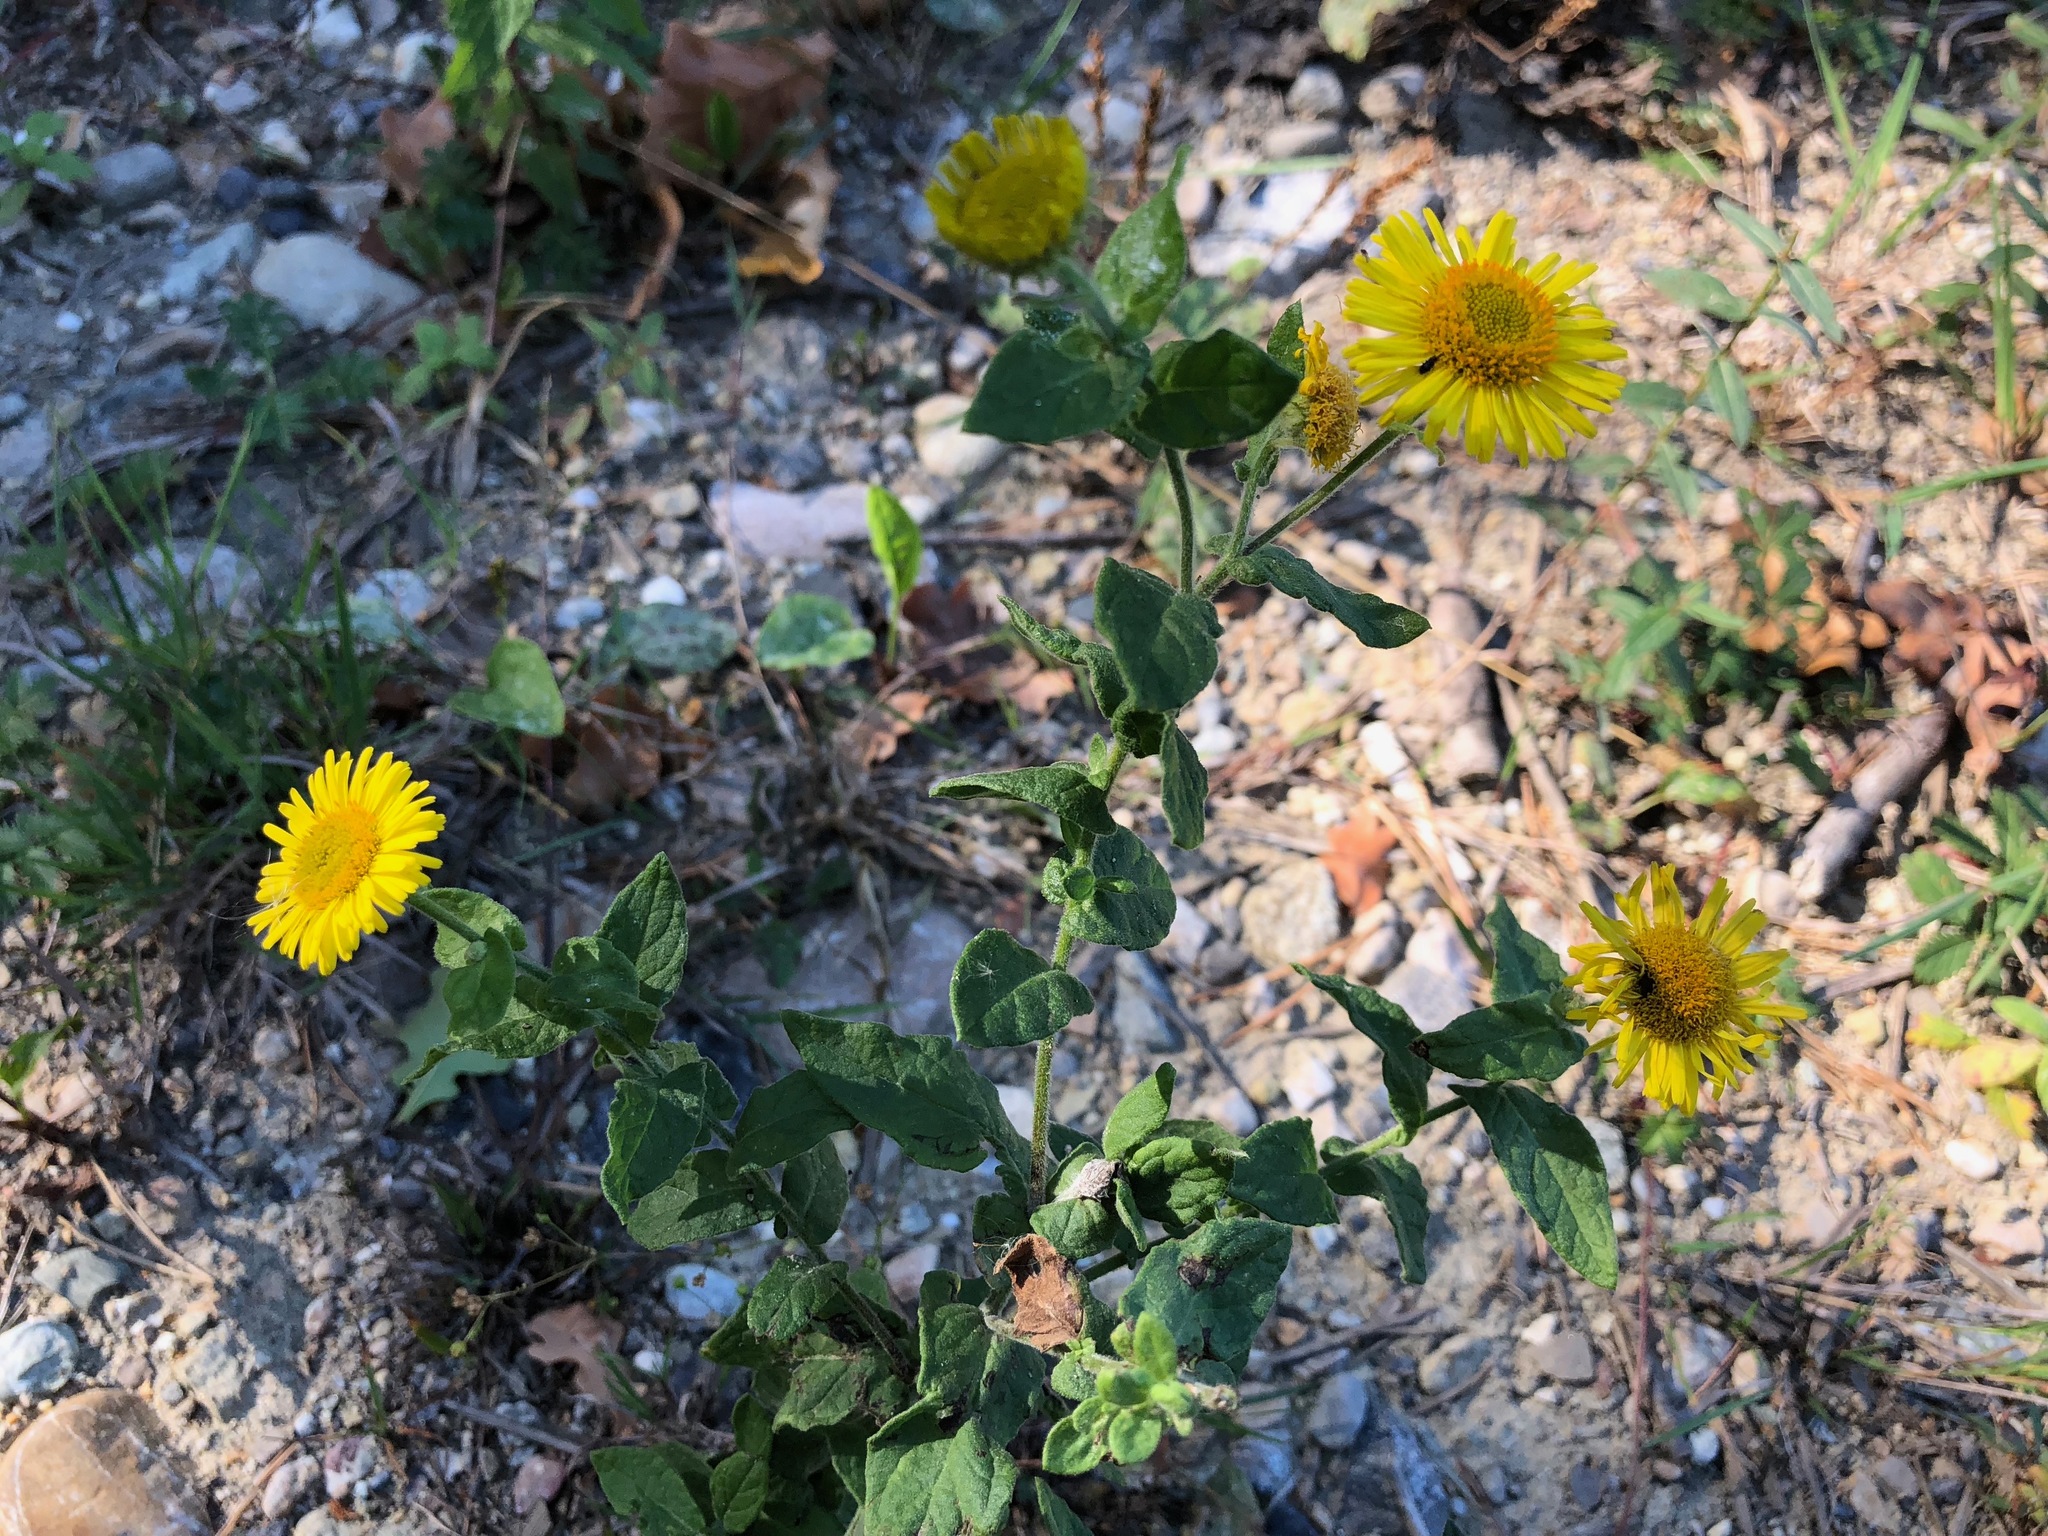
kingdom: Plantae
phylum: Tracheophyta
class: Magnoliopsida
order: Asterales
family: Asteraceae
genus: Pulicaria
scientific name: Pulicaria dysenterica
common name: Common fleabane
